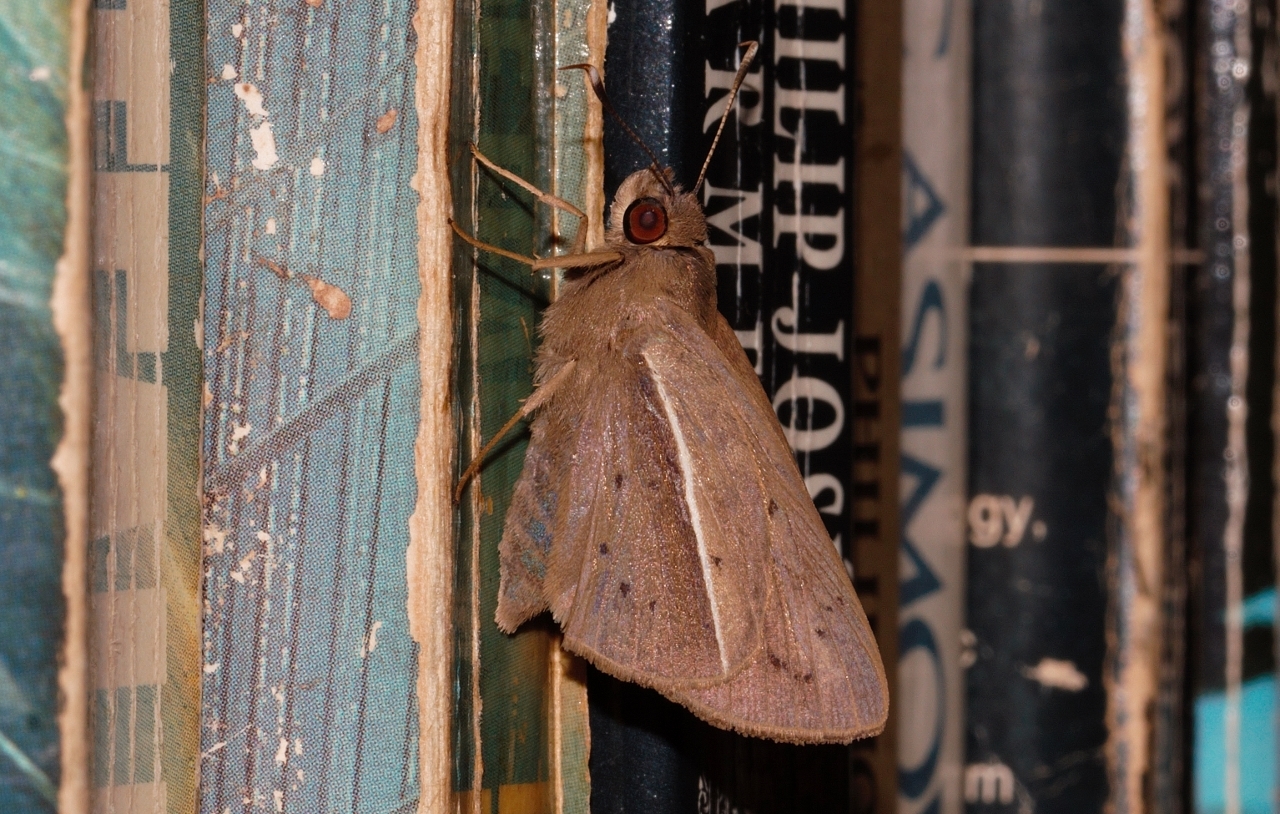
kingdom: Animalia
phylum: Arthropoda
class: Insecta
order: Lepidoptera
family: Hesperiidae
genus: Zophopetes
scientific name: Zophopetes dysmephila
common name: Palm-tree nightfighter
